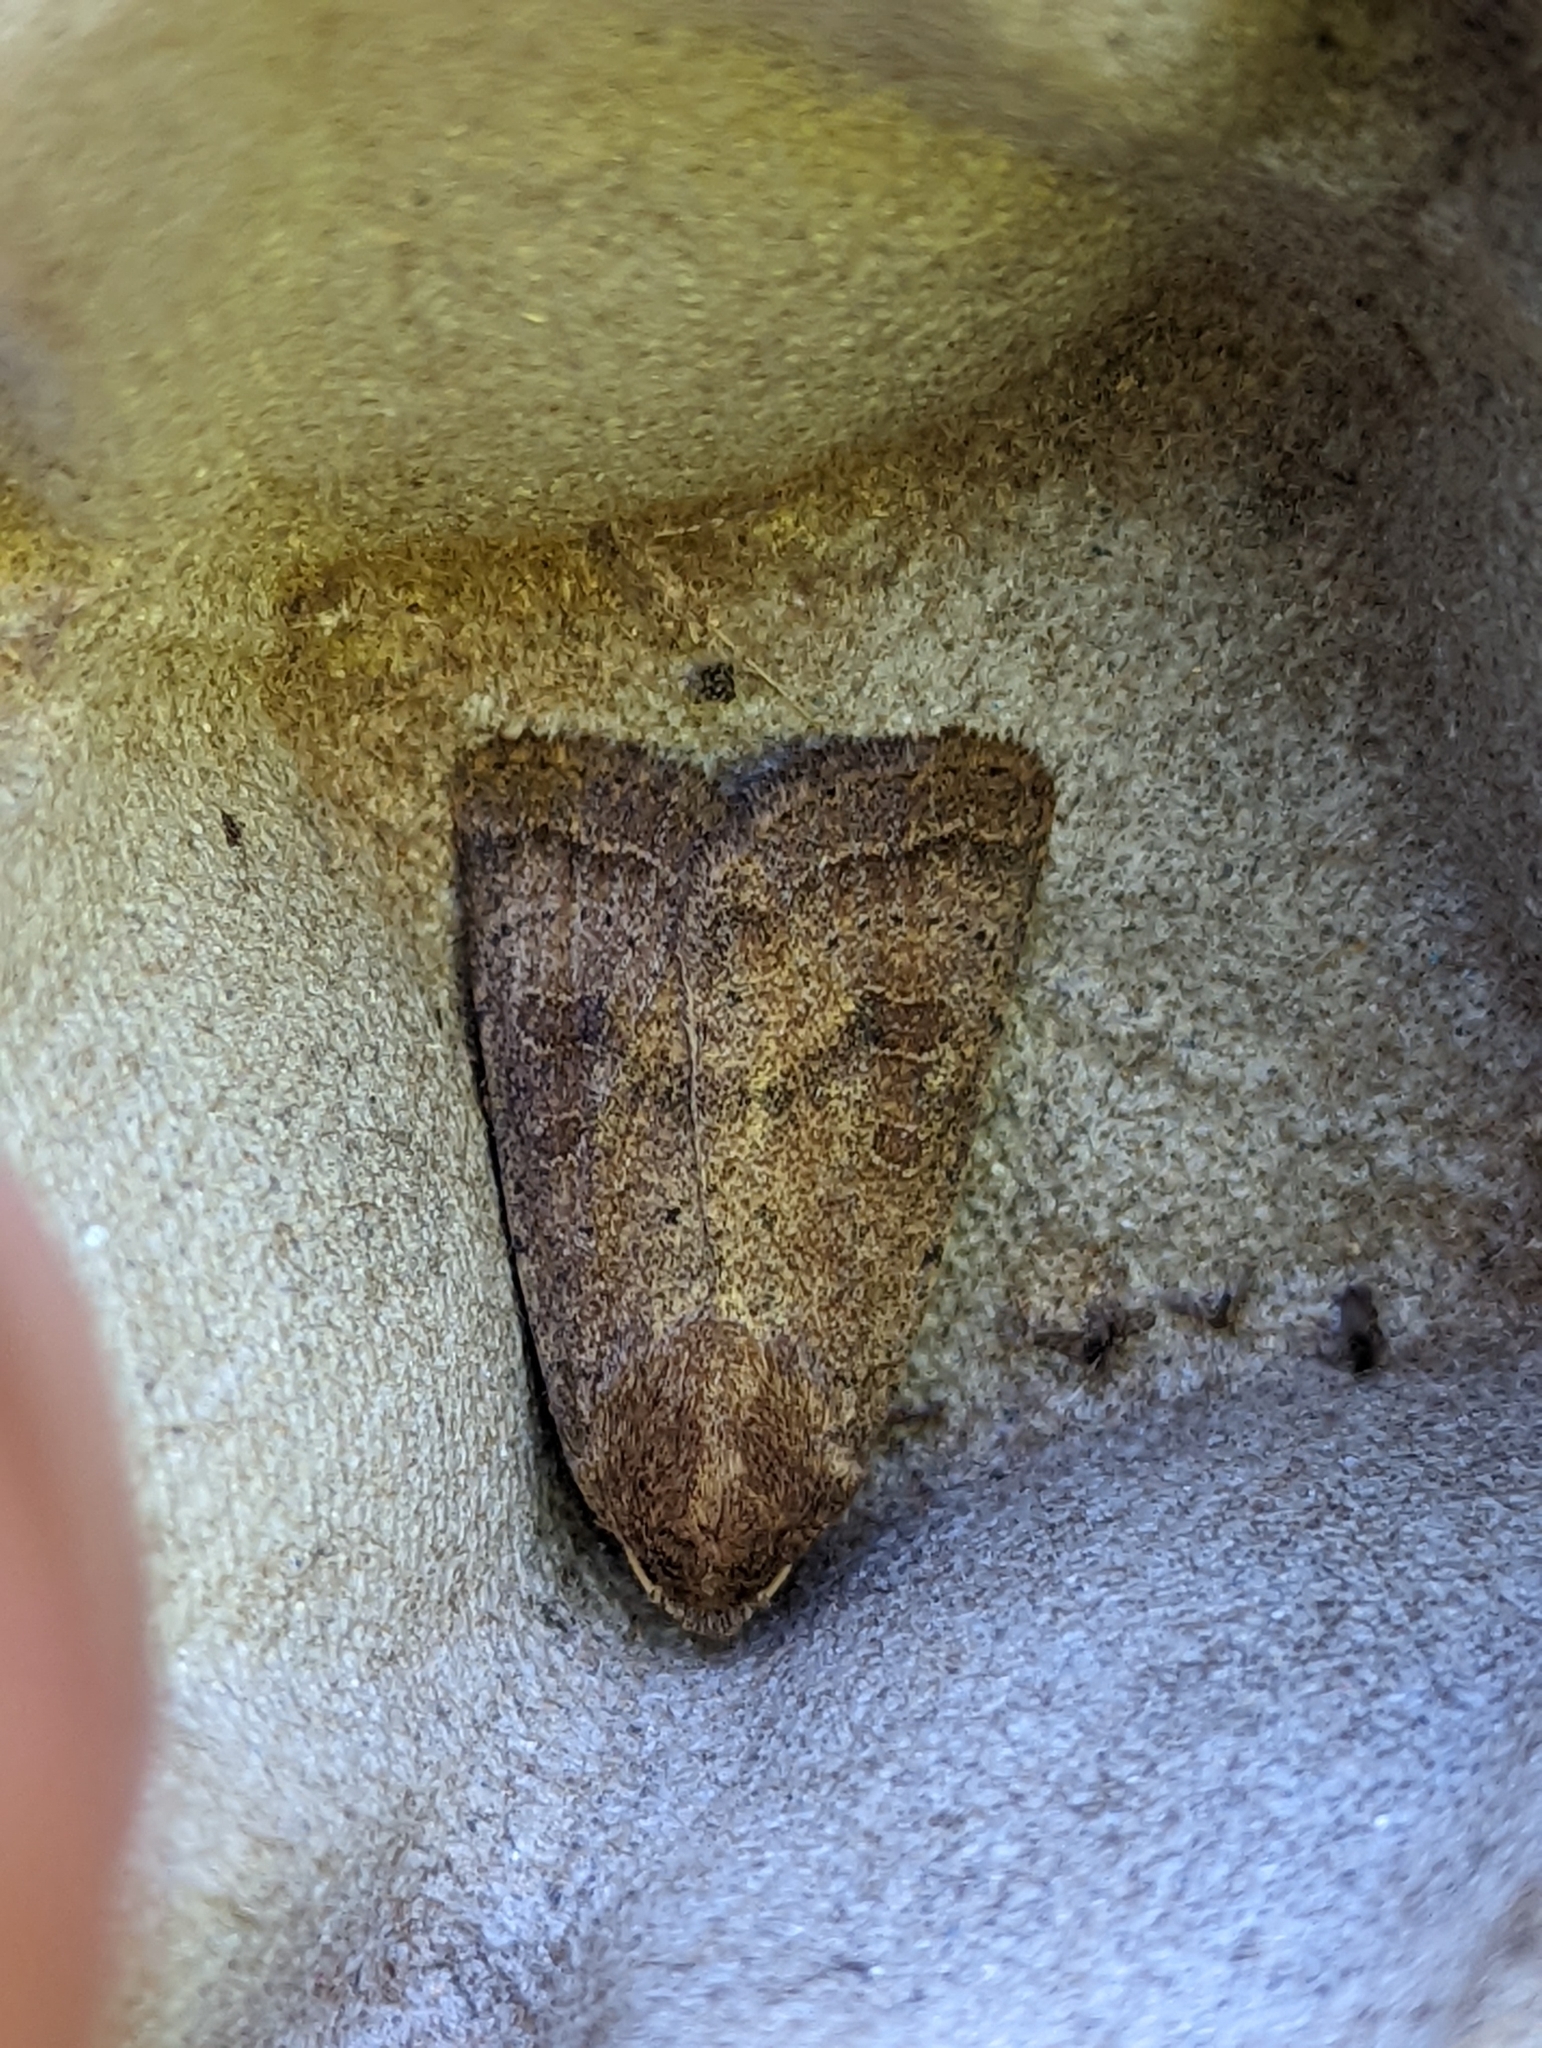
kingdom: Animalia
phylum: Arthropoda
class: Insecta
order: Lepidoptera
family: Noctuidae
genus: Hoplodrina
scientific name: Hoplodrina octogenaria
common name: Uncertain
